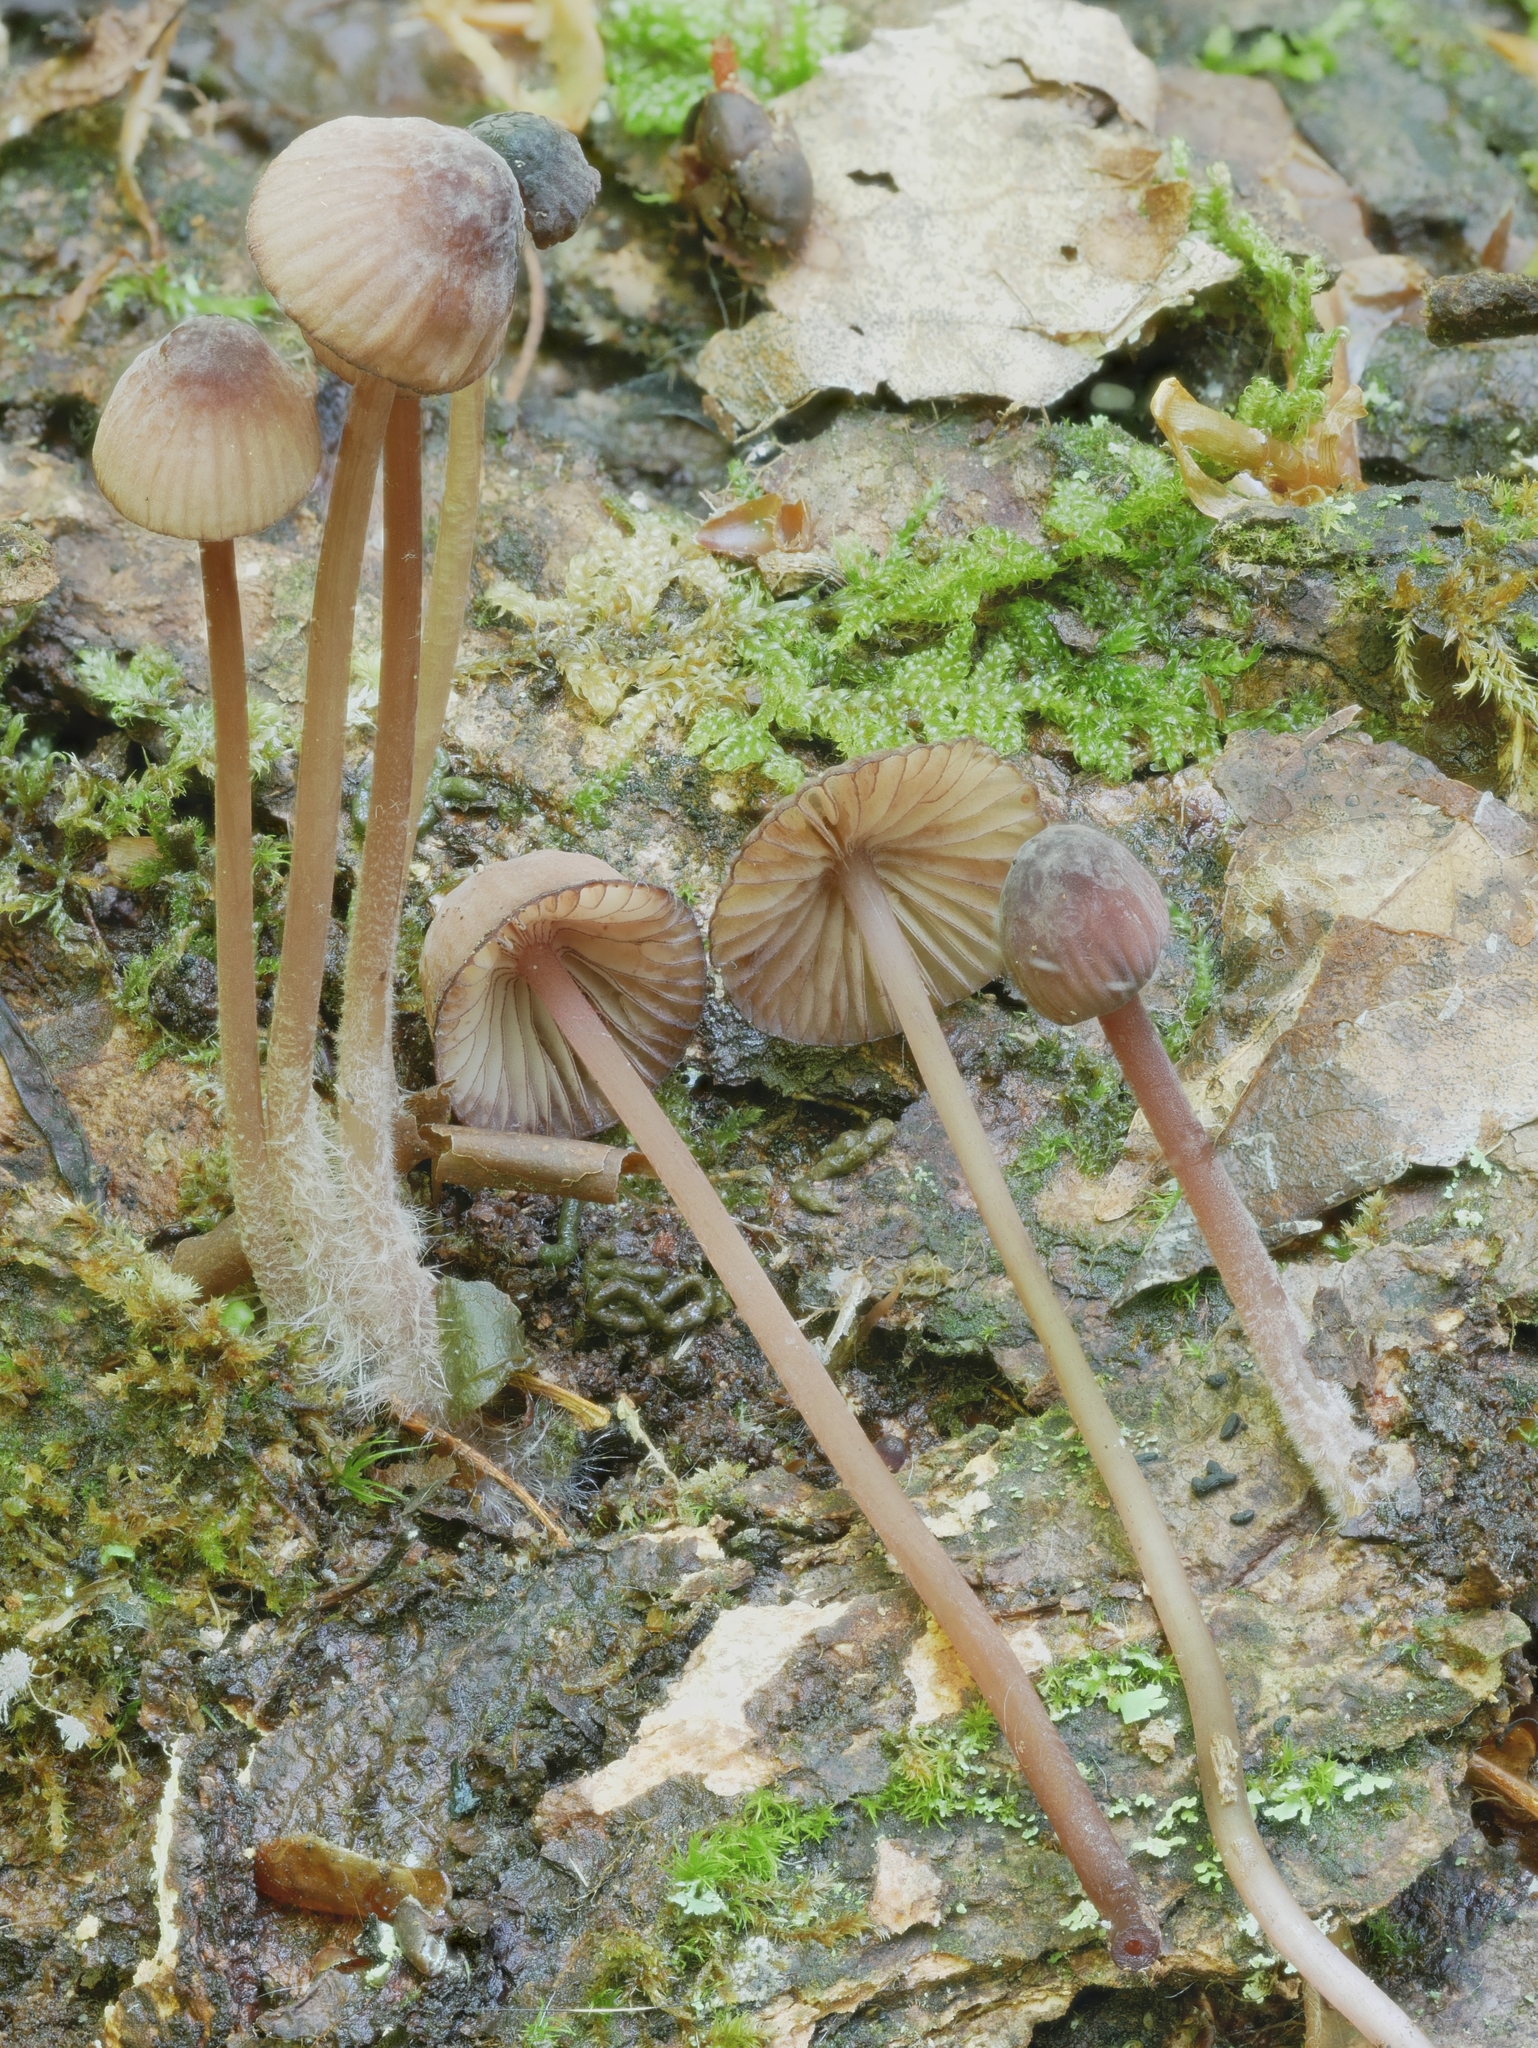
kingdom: Fungi
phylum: Basidiomycota
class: Agaricomycetes
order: Agaricales
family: Mycenaceae
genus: Mycena
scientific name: Mycena sanguinolenta
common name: Bleeding bonnet
